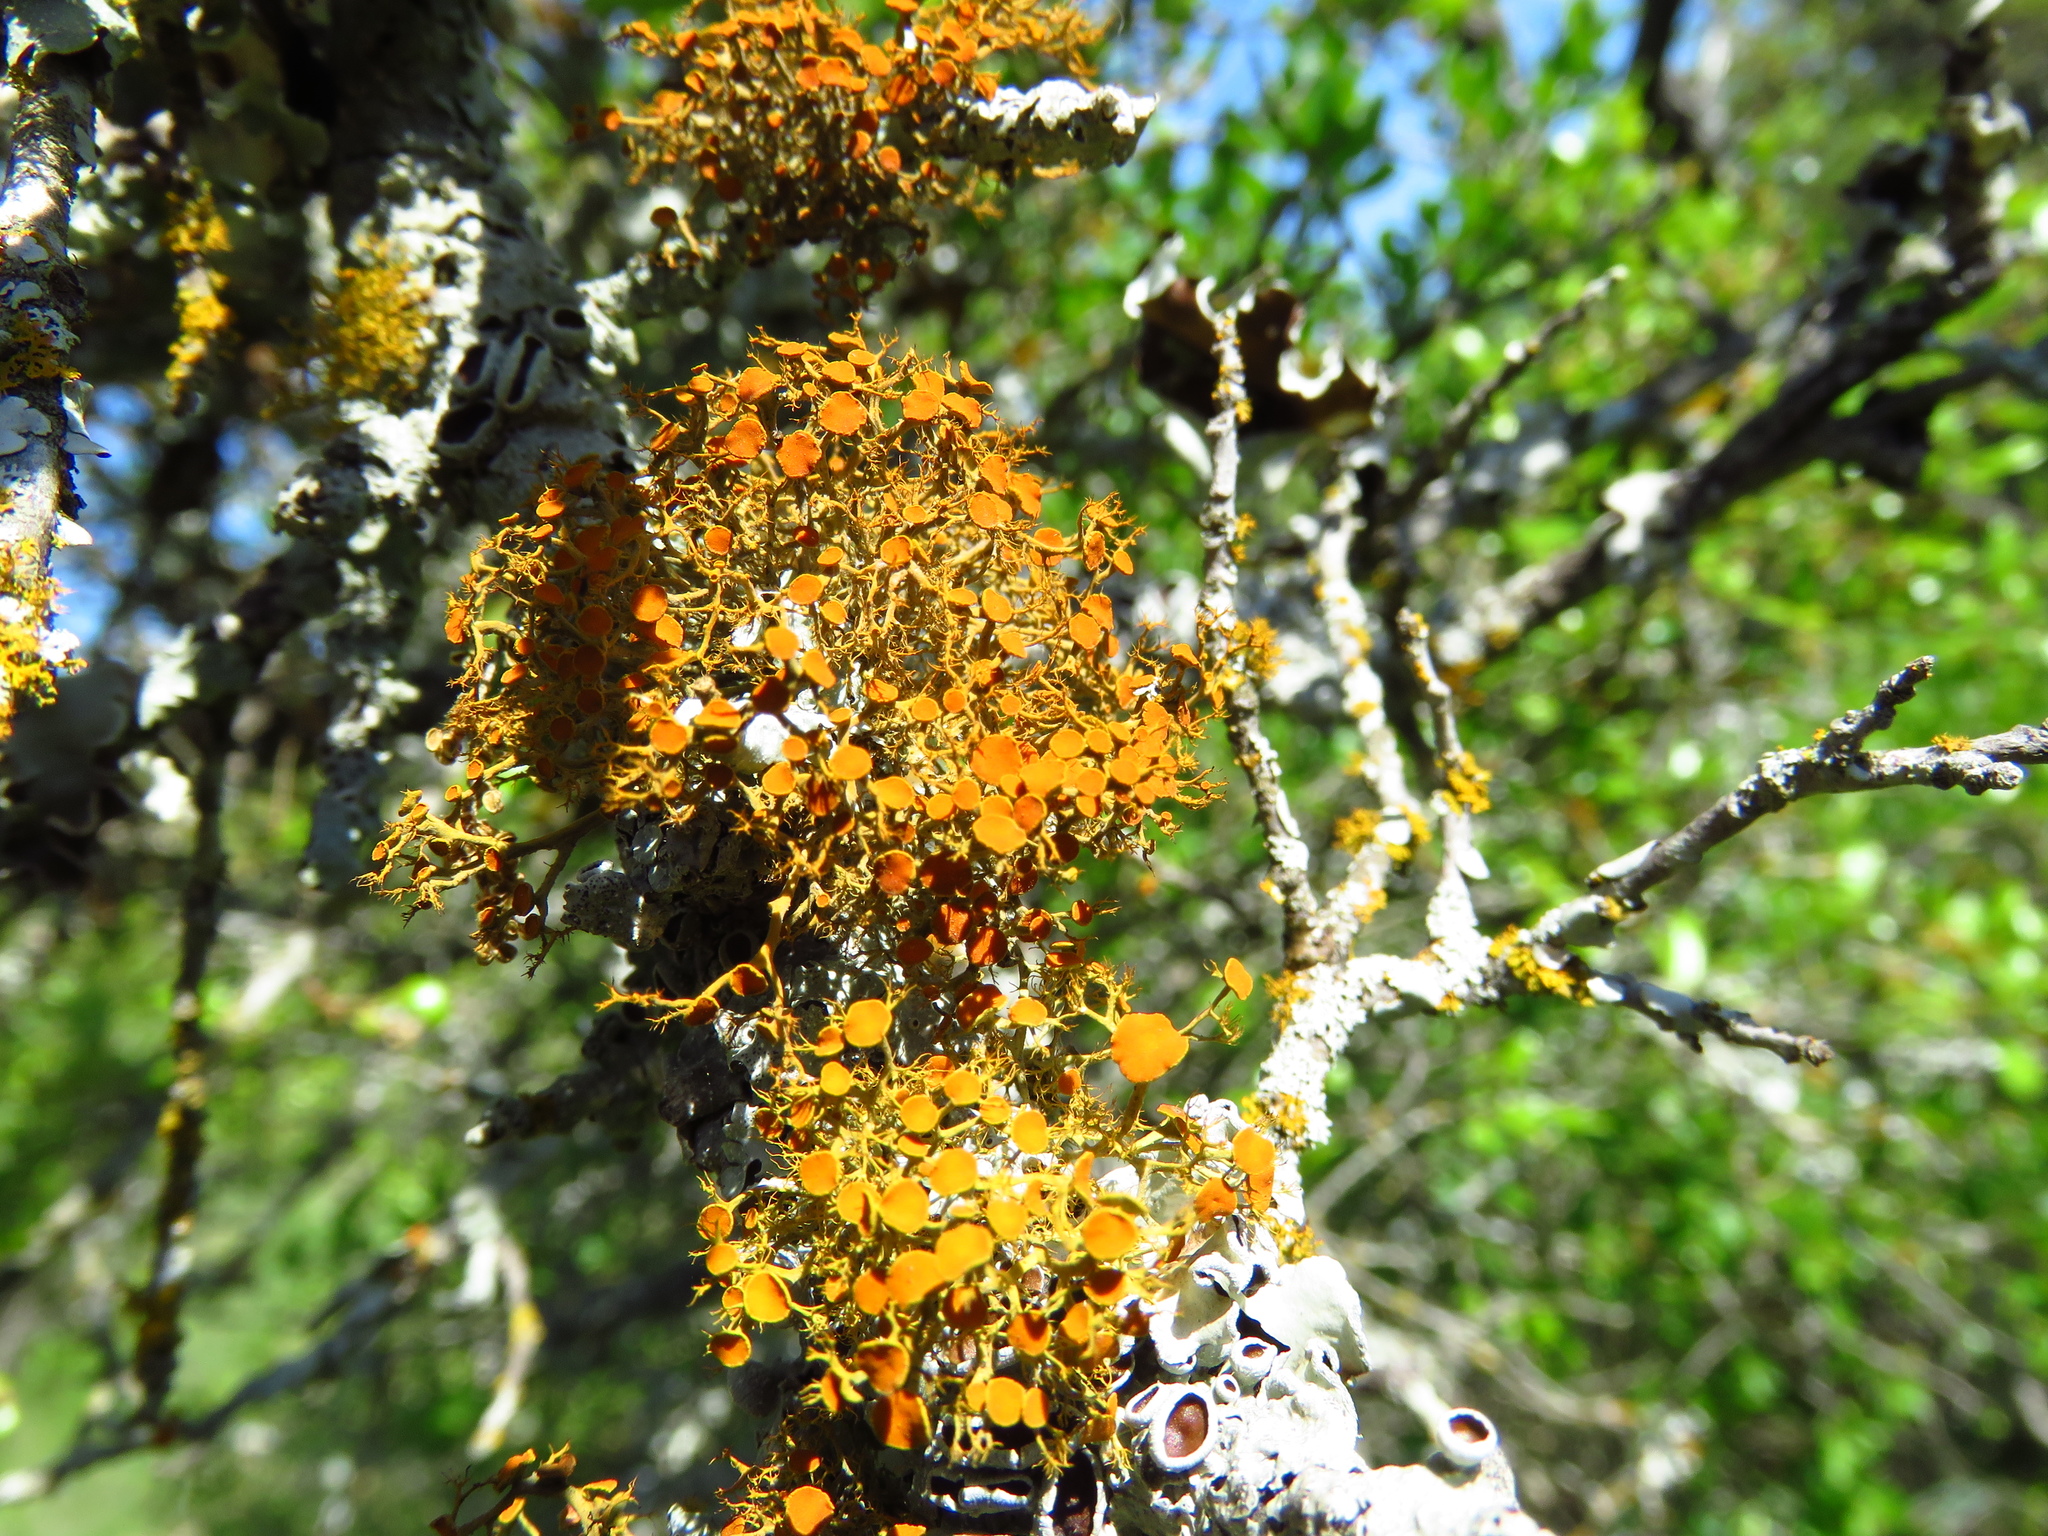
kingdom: Fungi
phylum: Ascomycota
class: Lecanoromycetes
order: Teloschistales
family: Teloschistaceae
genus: Teloschistes
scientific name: Teloschistes exilis
